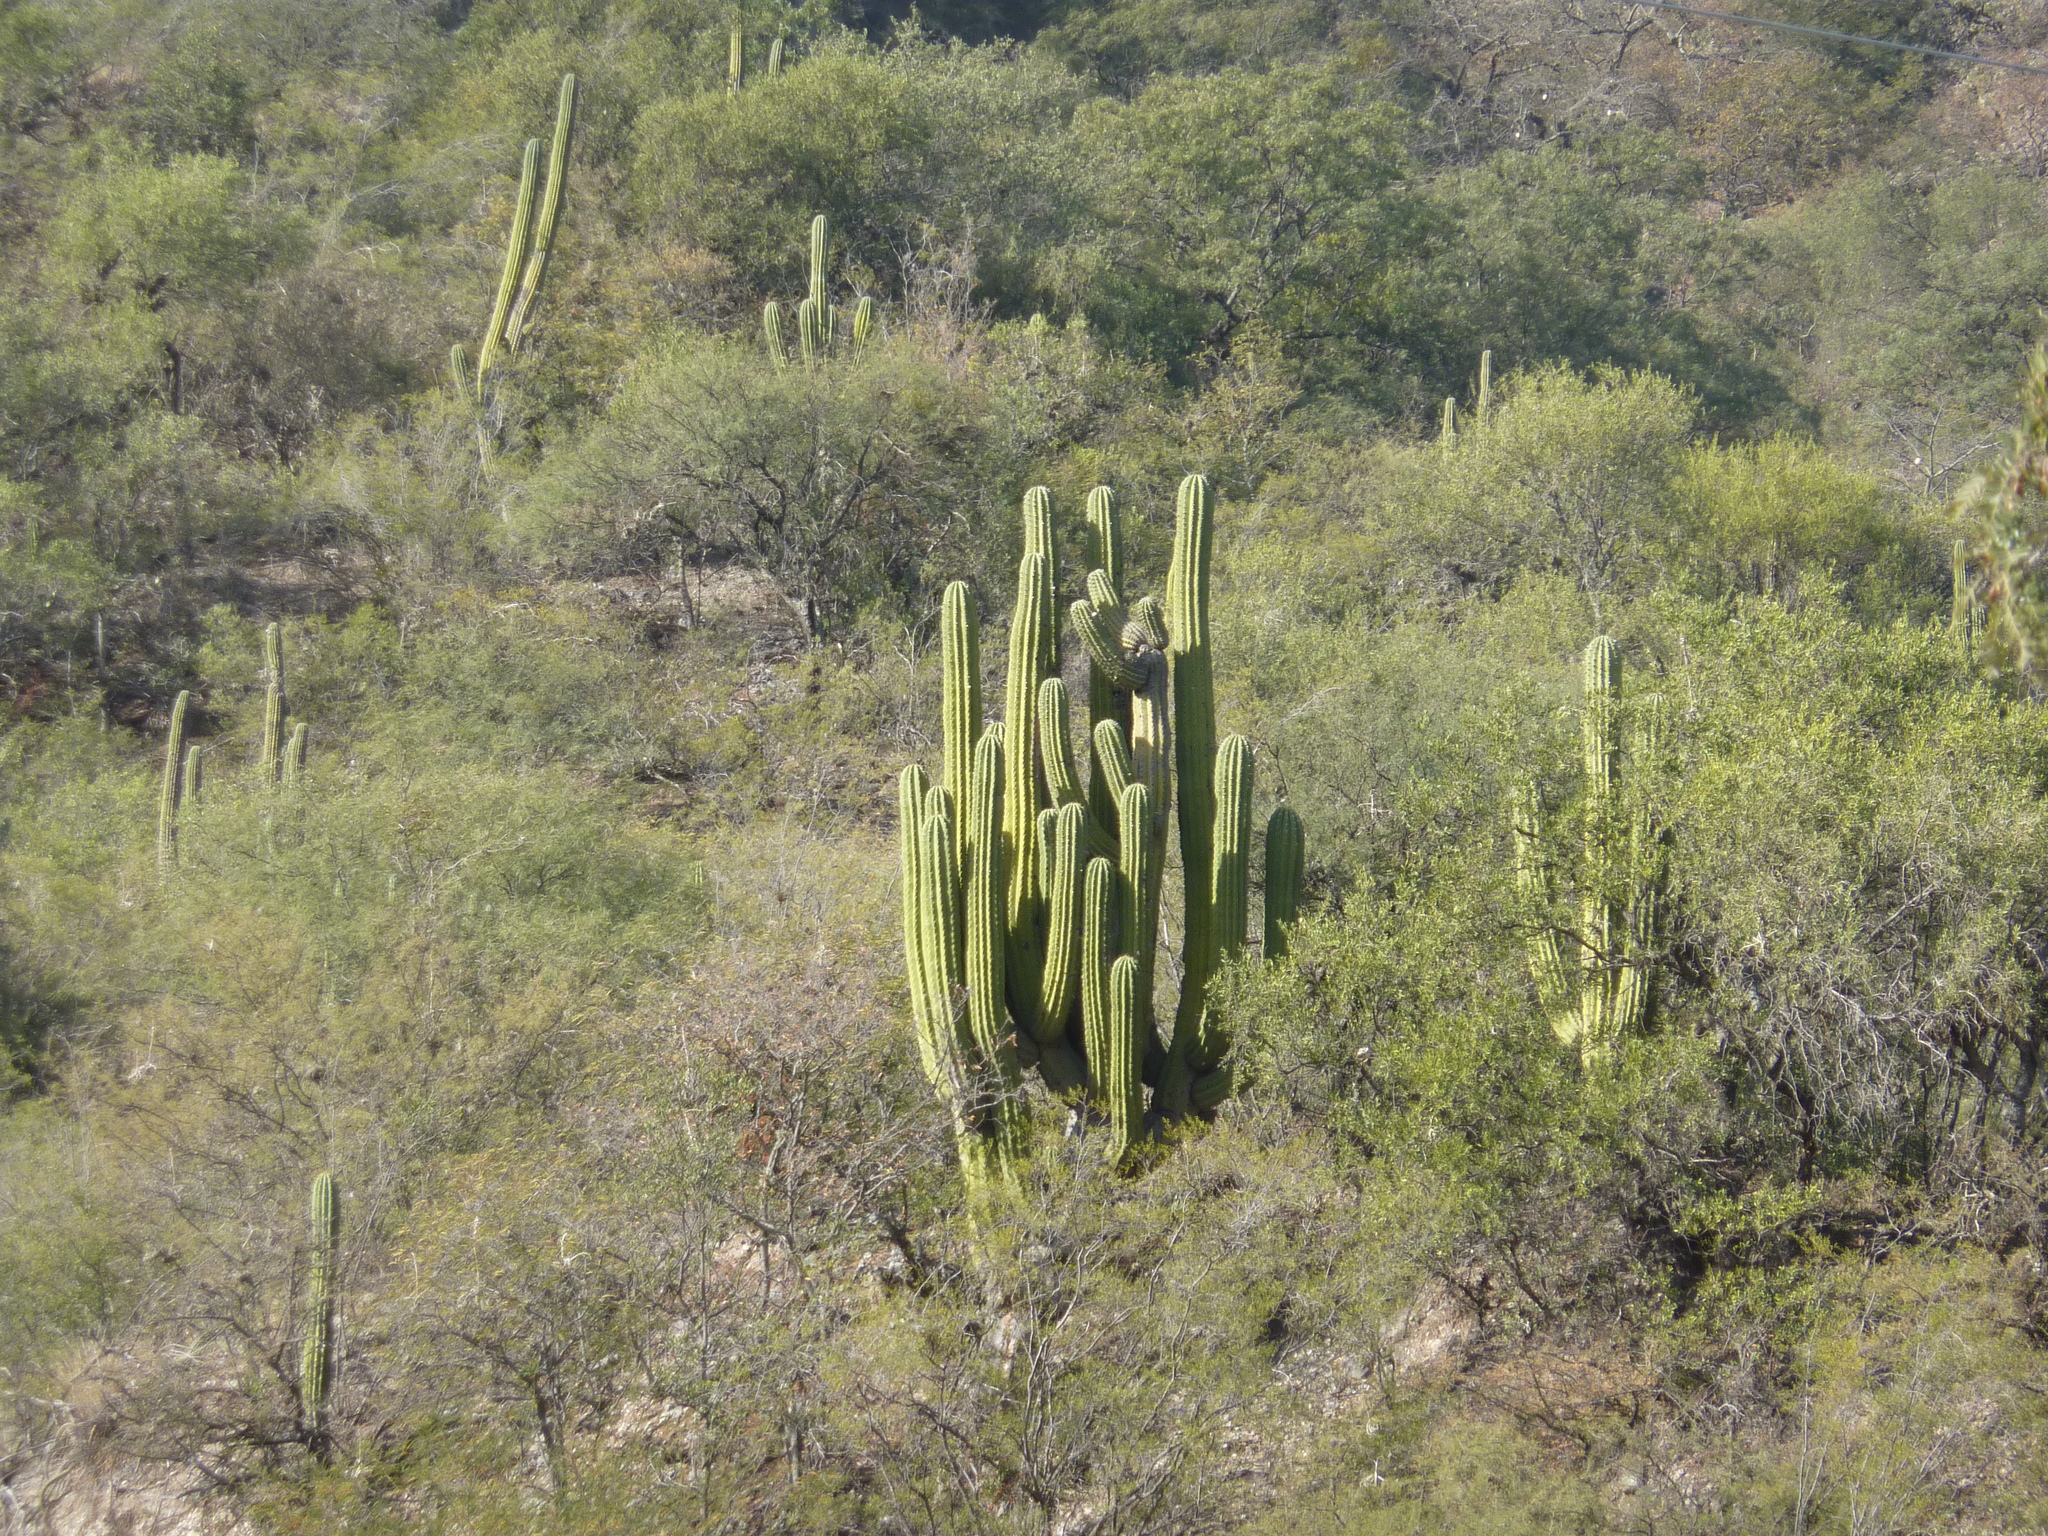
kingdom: Plantae
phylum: Tracheophyta
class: Magnoliopsida
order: Caryophyllales
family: Cactaceae
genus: Leucostele
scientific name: Leucostele terscheckii
